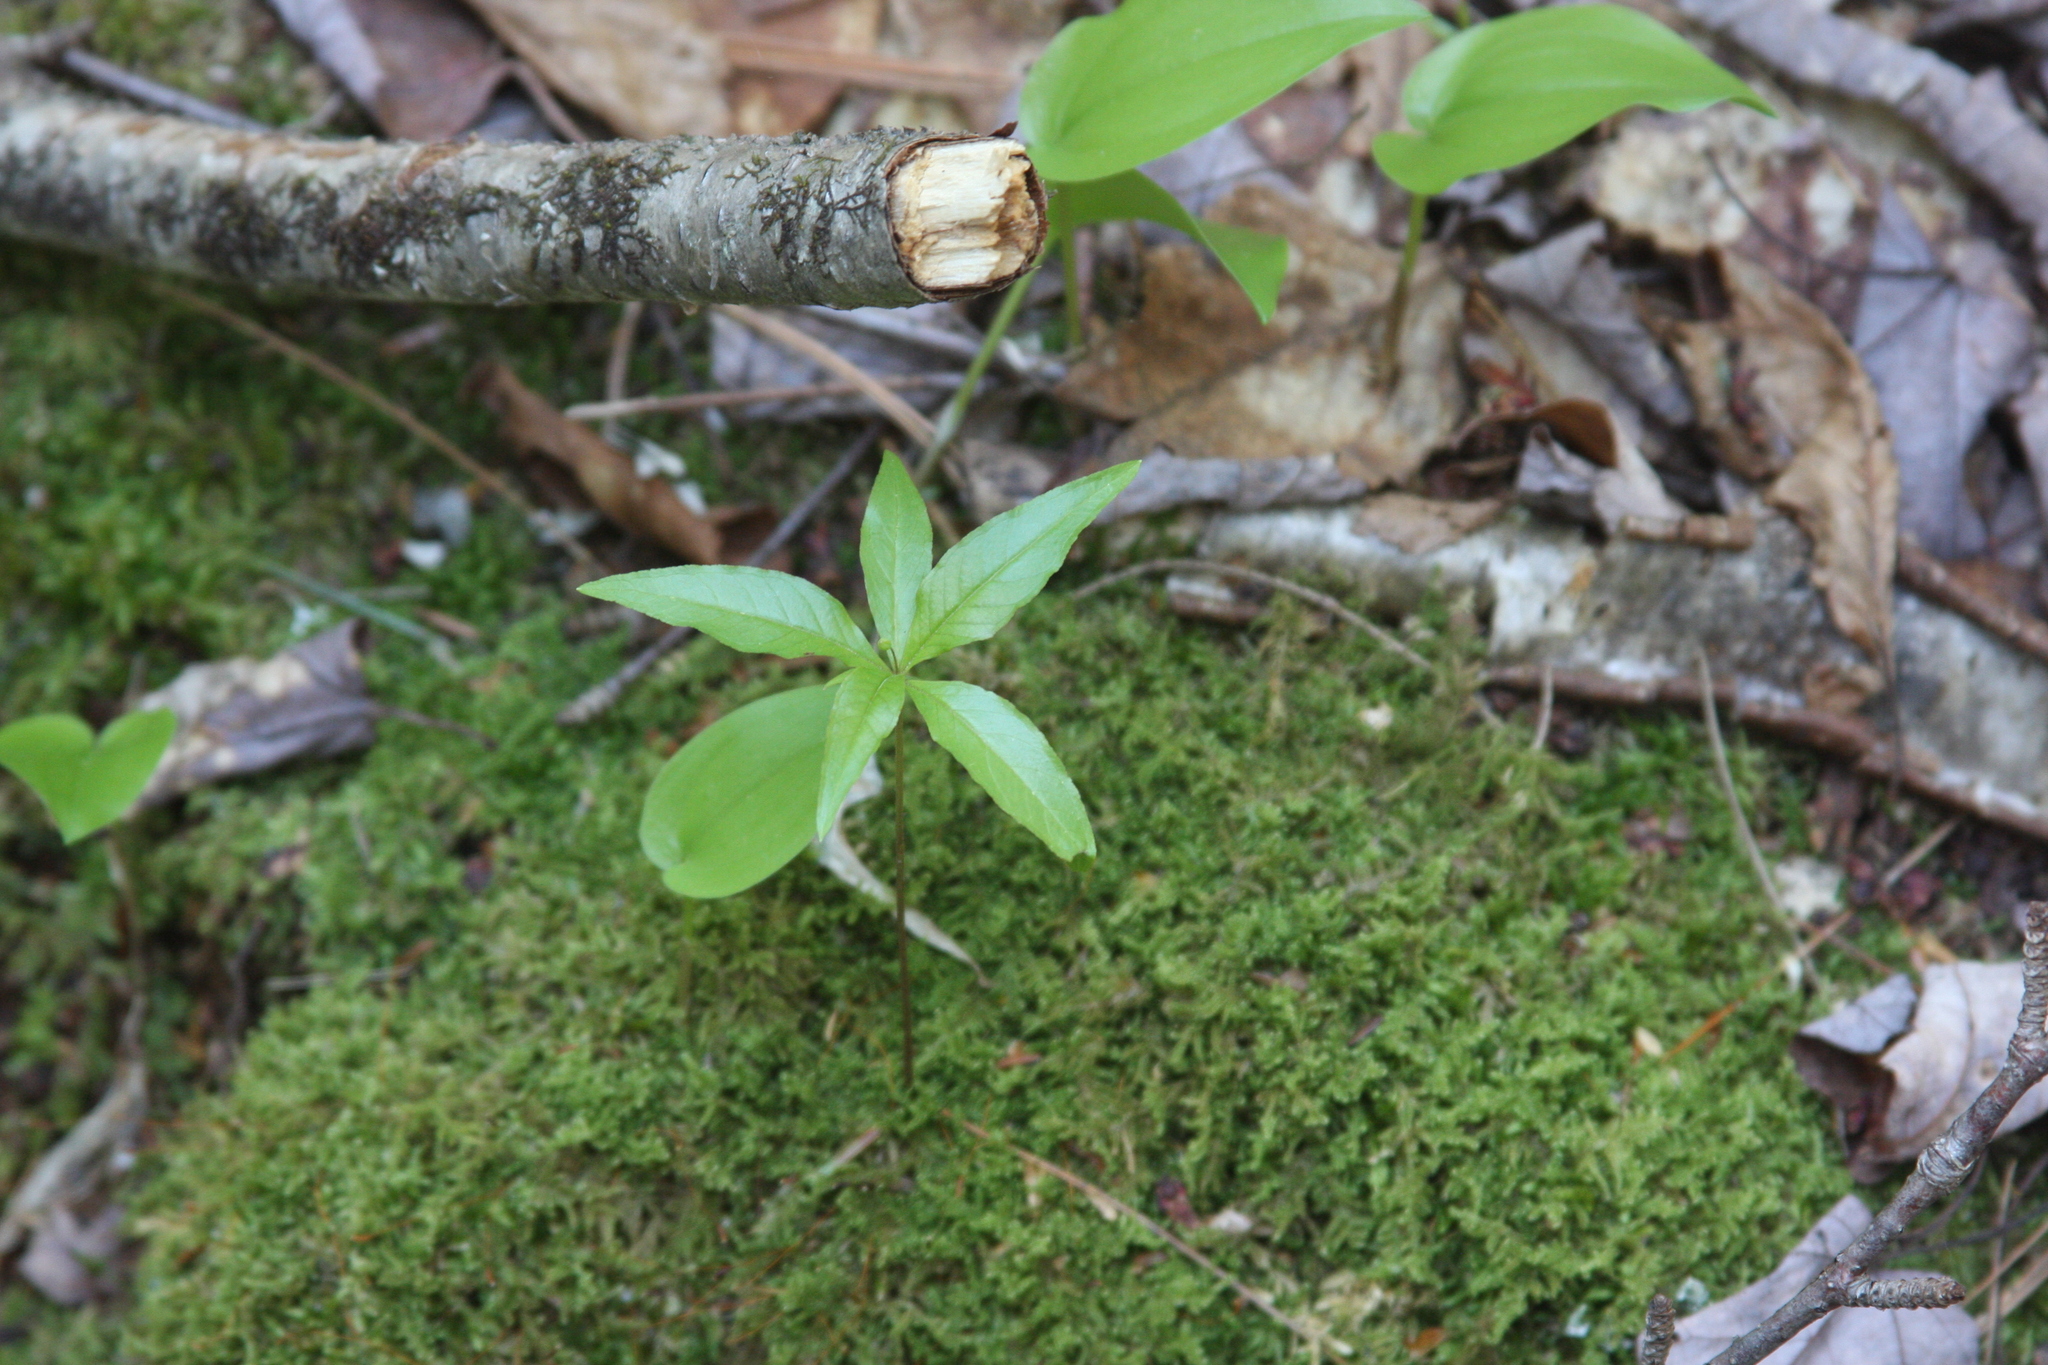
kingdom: Plantae
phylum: Tracheophyta
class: Magnoliopsida
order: Ericales
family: Primulaceae
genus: Lysimachia
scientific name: Lysimachia borealis
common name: American starflower
